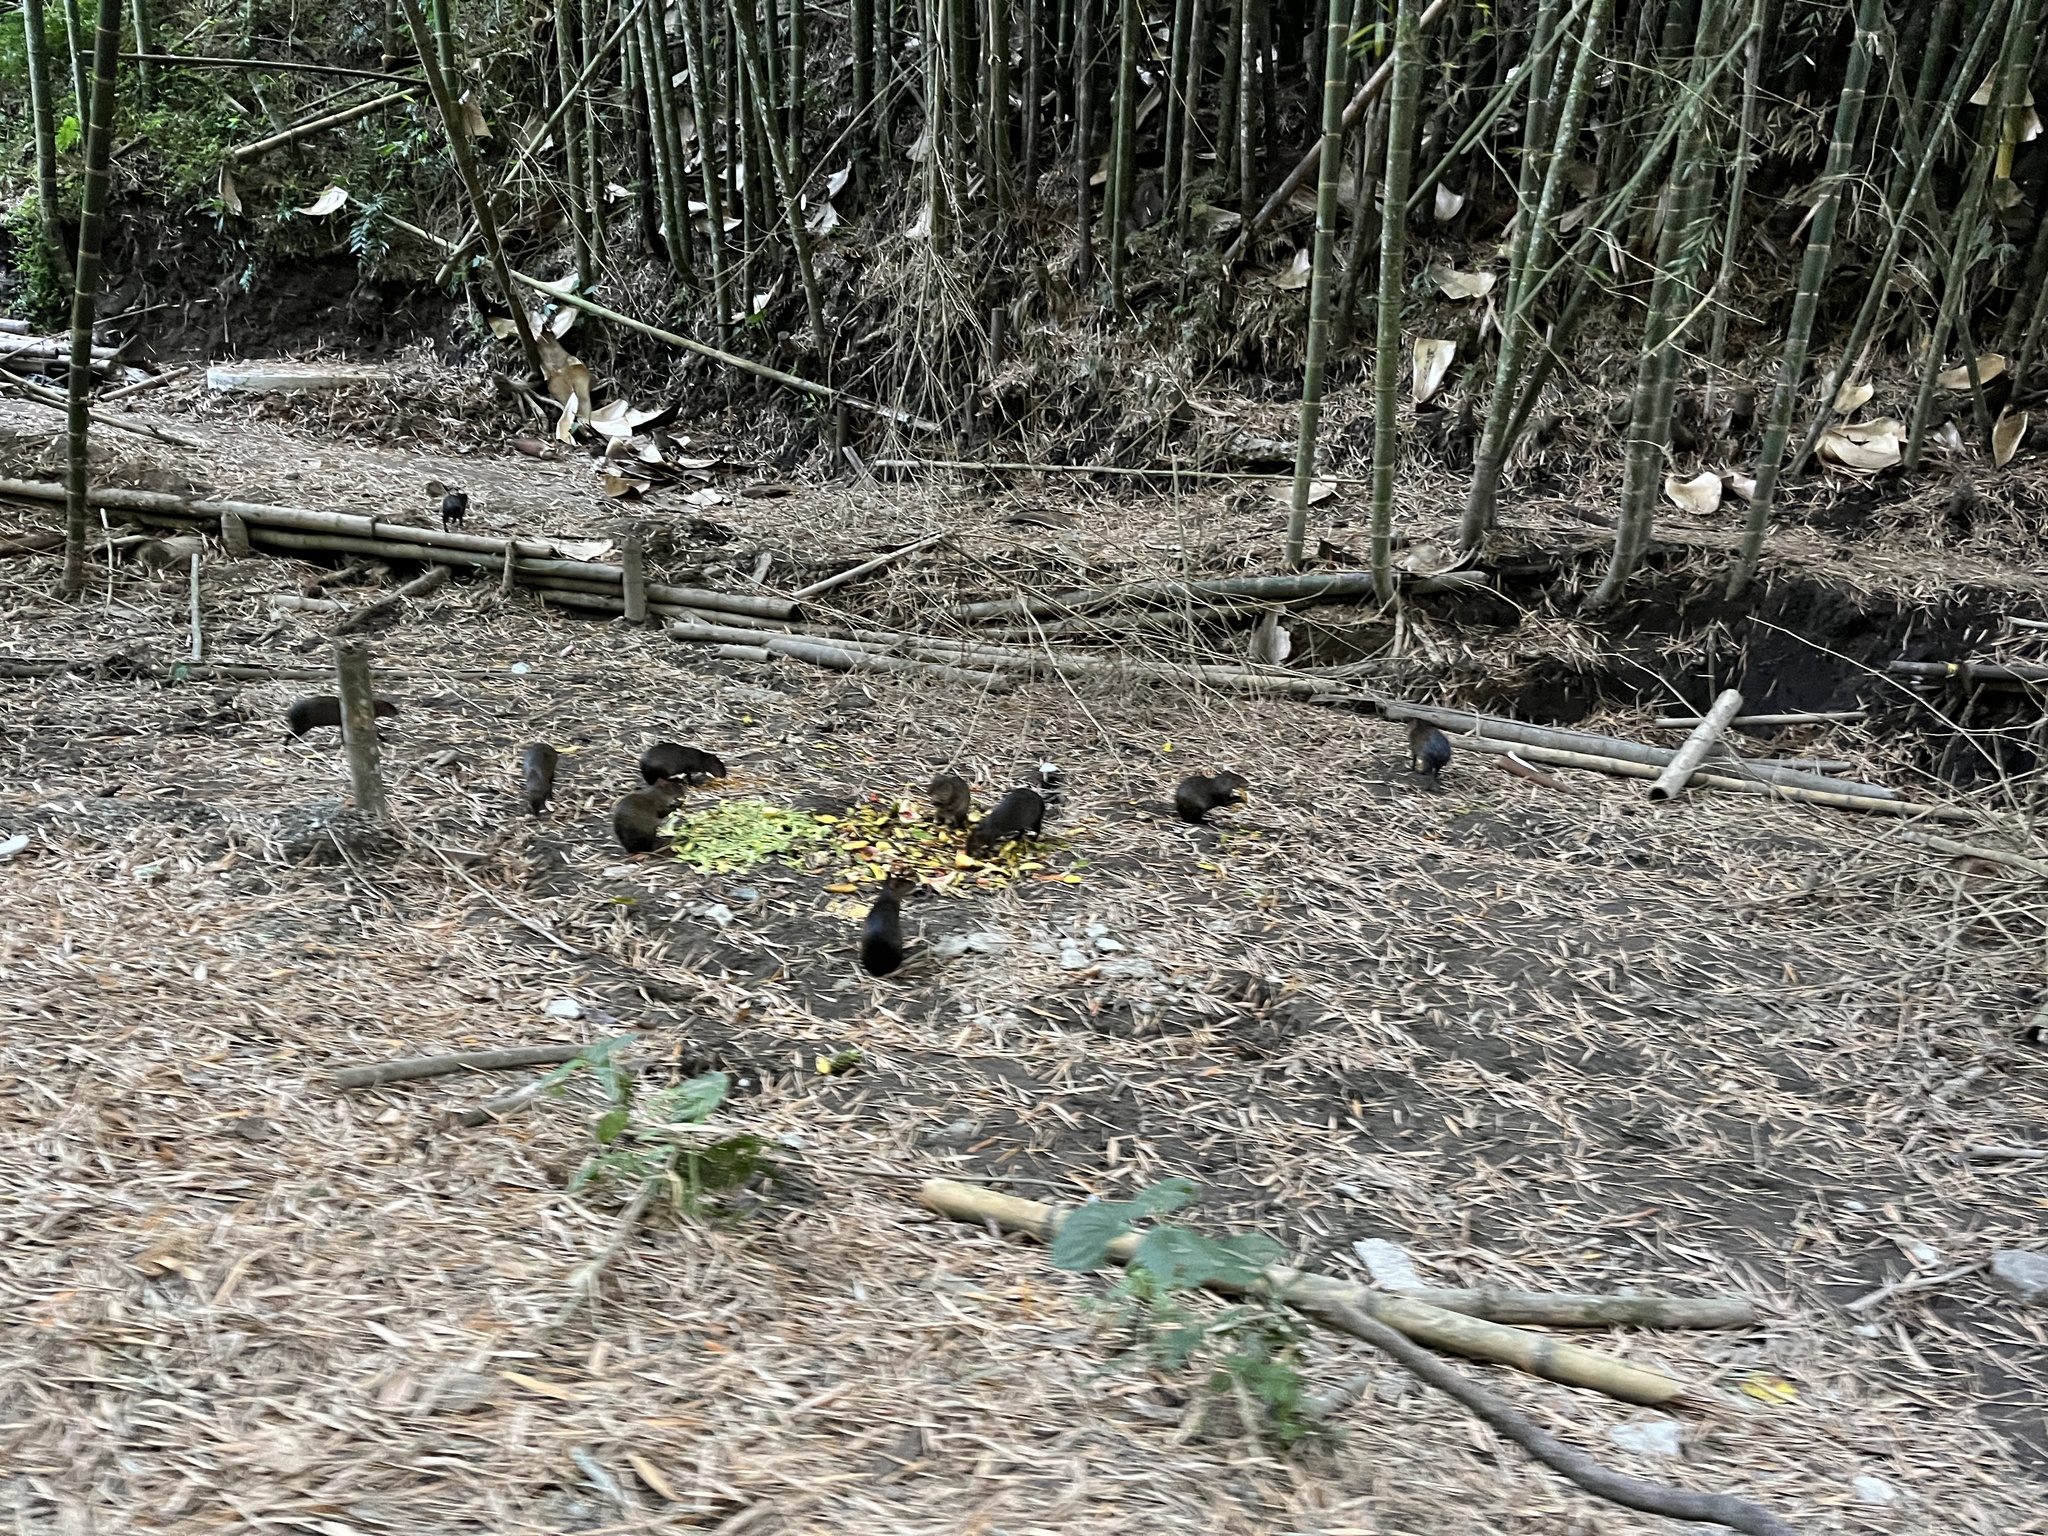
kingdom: Animalia
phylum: Chordata
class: Mammalia
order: Rodentia
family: Dasyproctidae
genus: Dasyprocta
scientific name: Dasyprocta punctata
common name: Central american agouti
